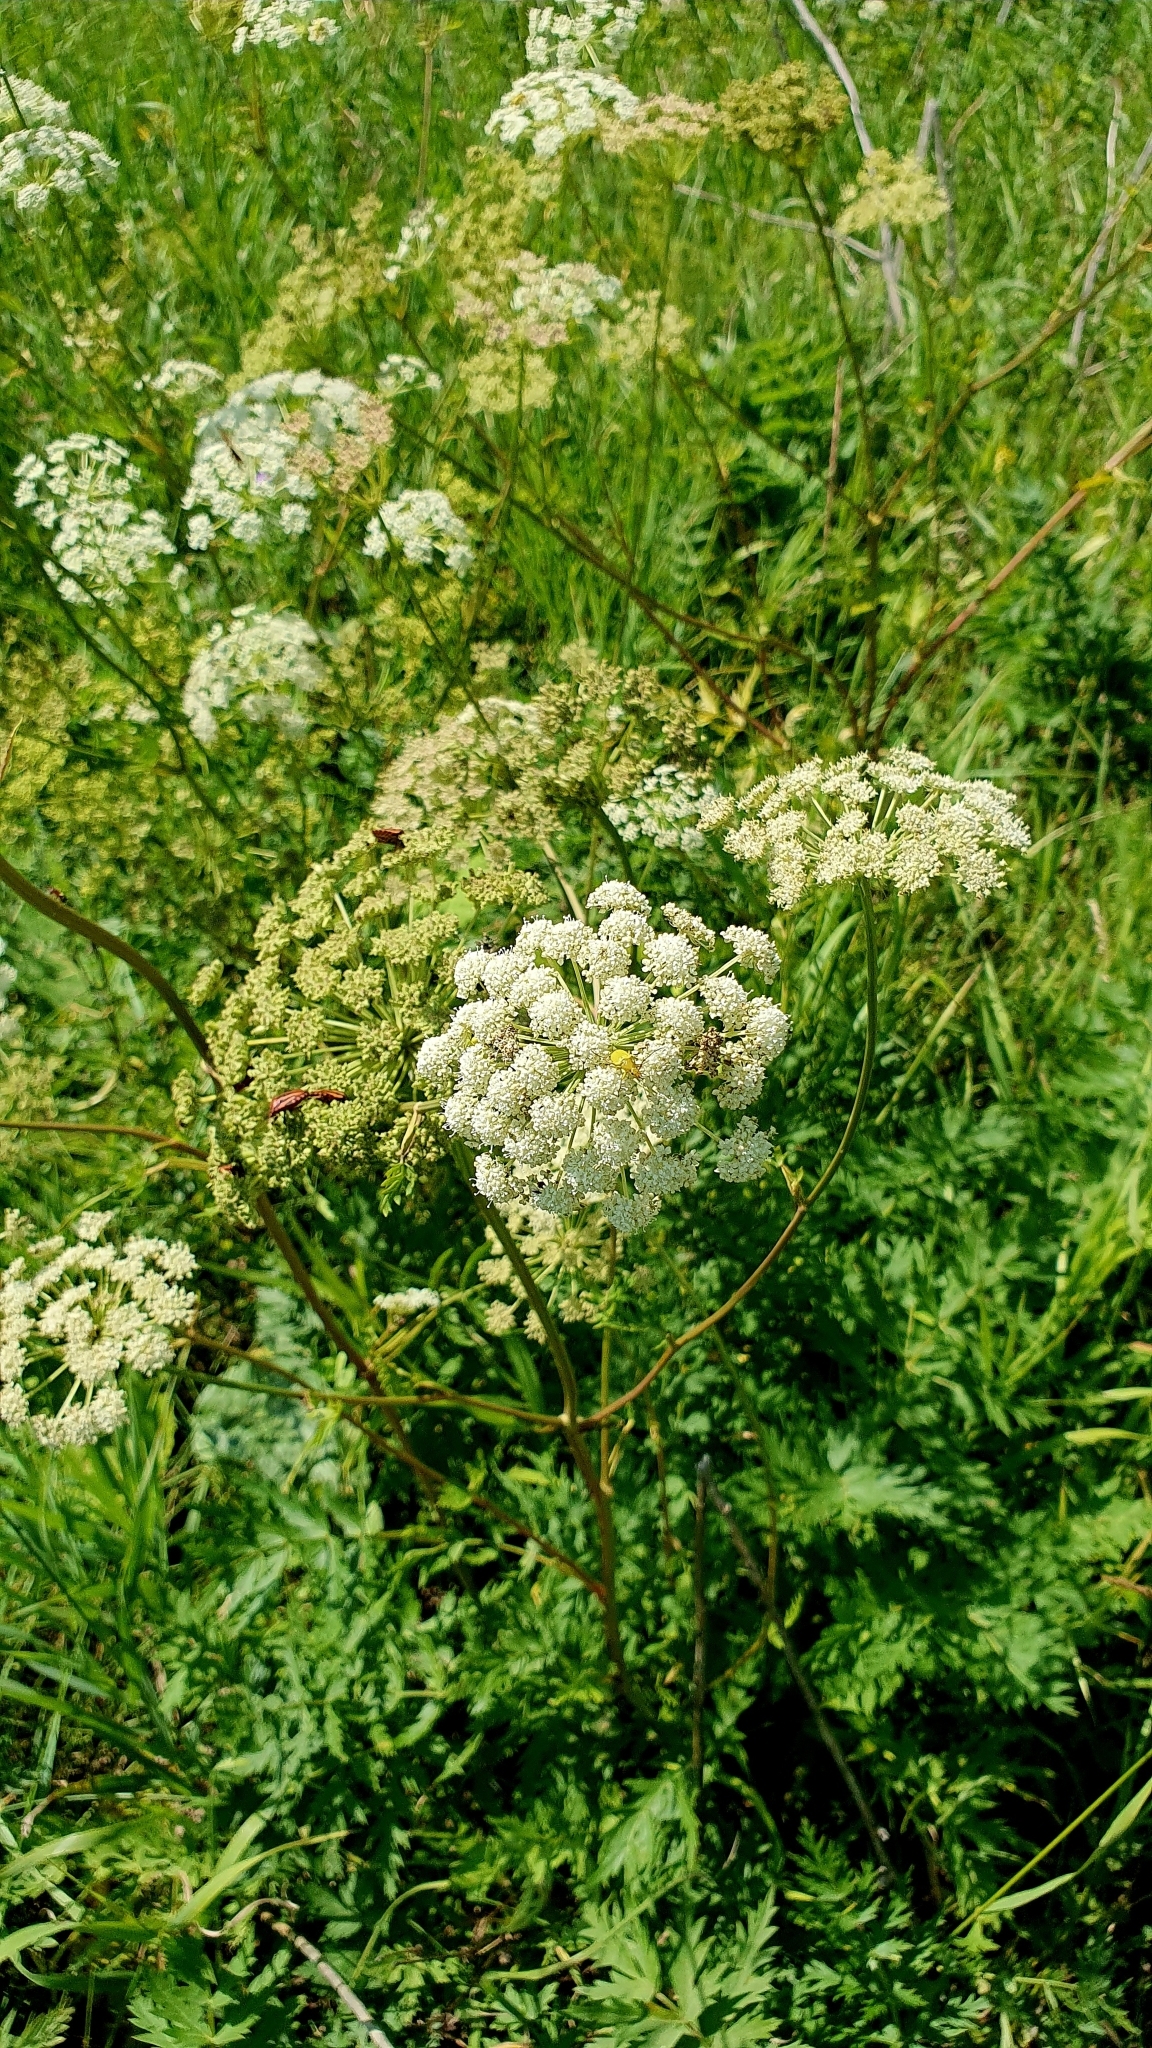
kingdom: Plantae
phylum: Tracheophyta
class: Magnoliopsida
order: Apiales
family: Apiaceae
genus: Seseli
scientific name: Seseli libanotis
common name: Mooncarrot
